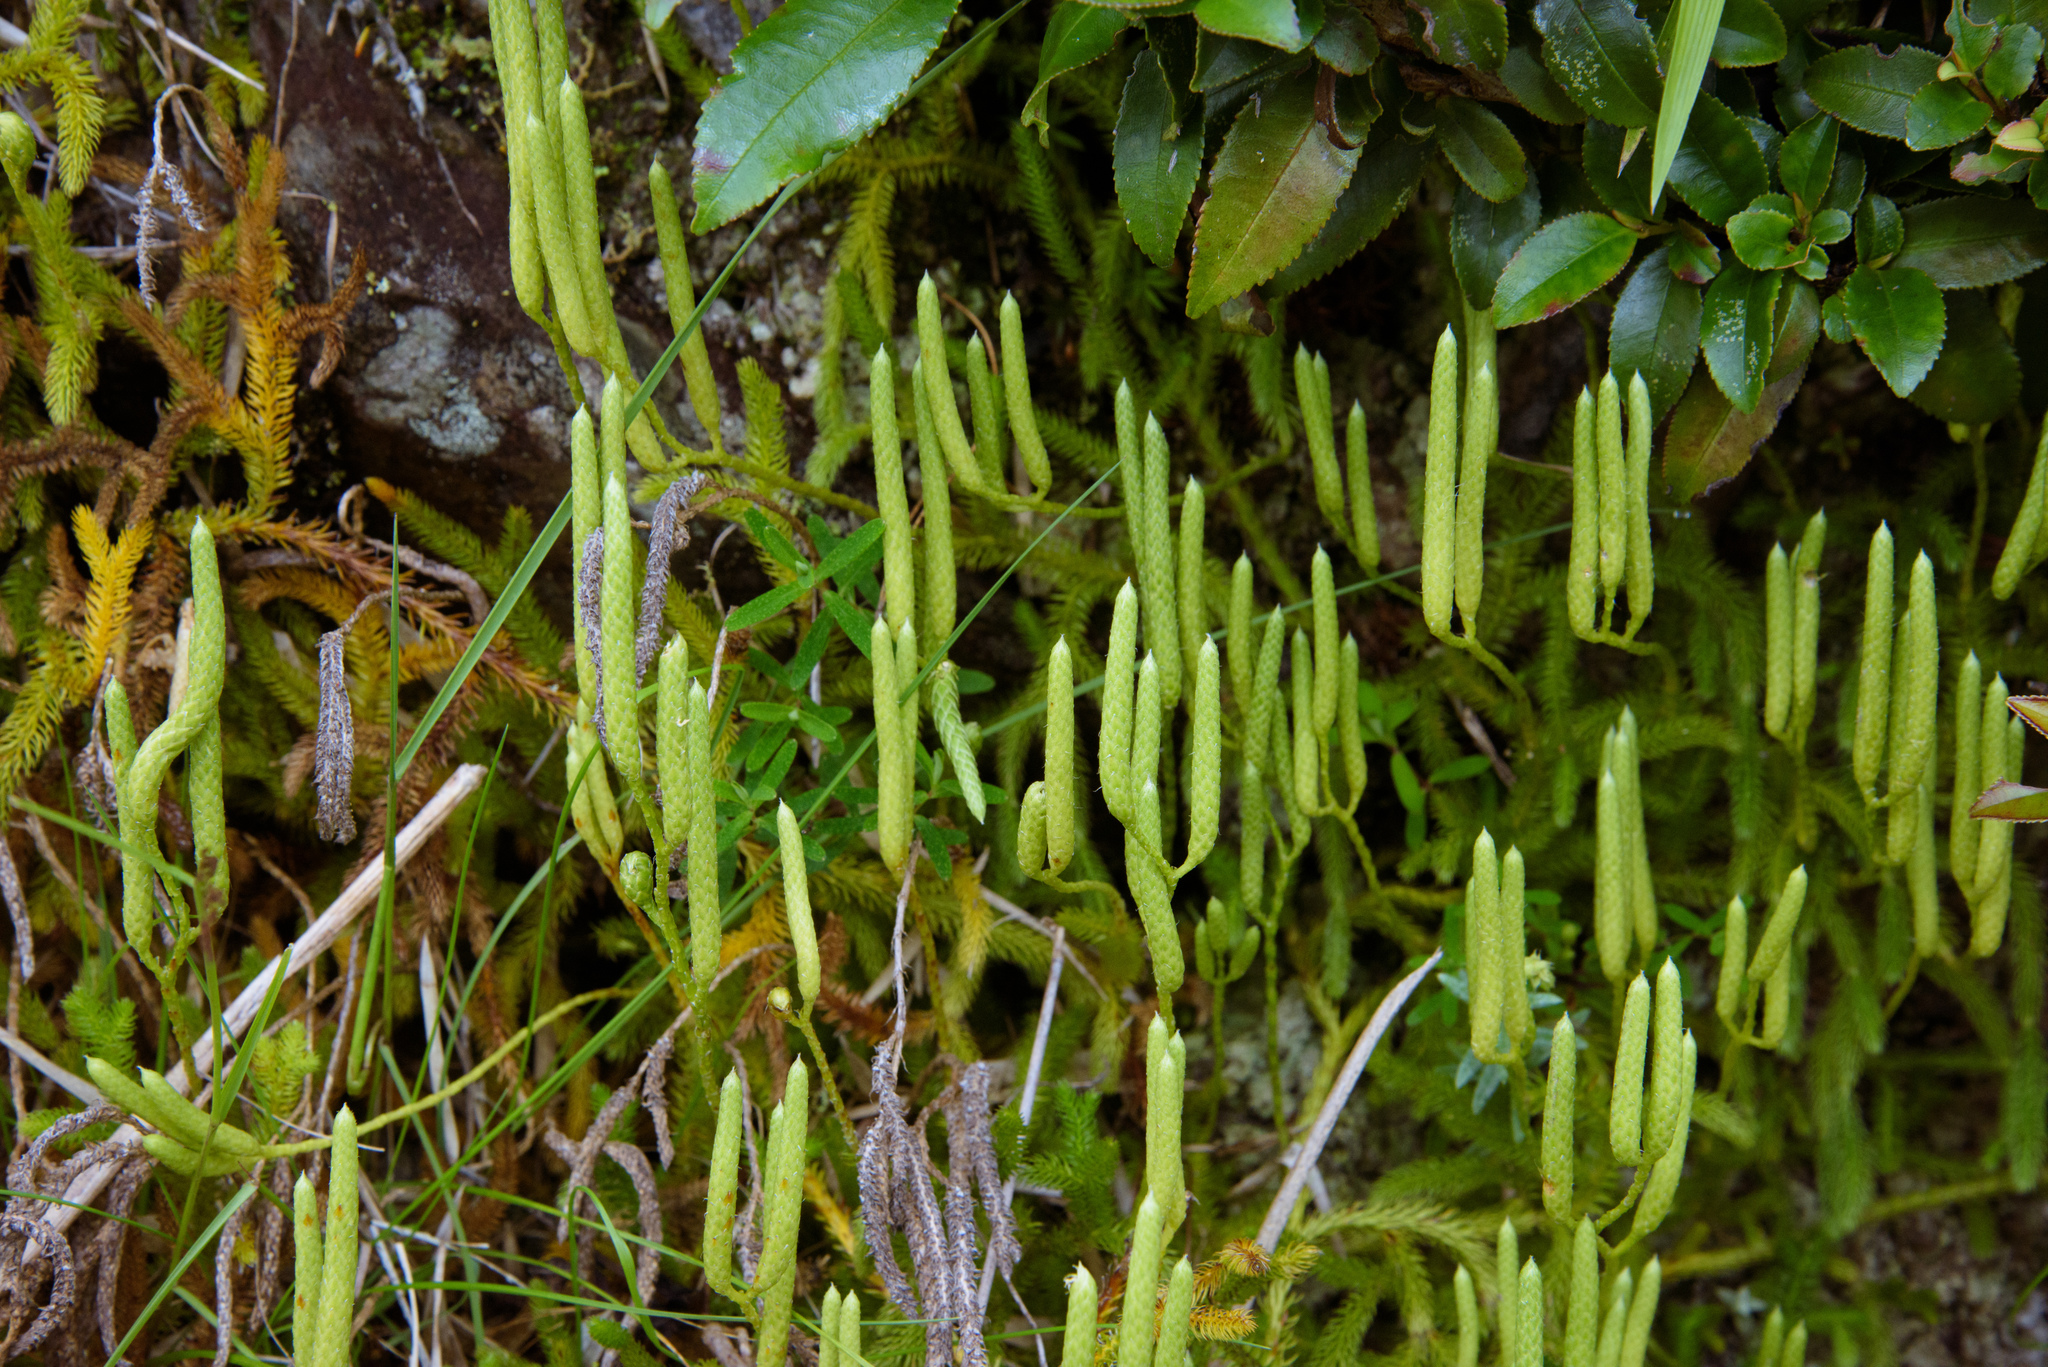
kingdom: Plantae
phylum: Tracheophyta
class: Lycopodiopsida
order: Lycopodiales
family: Lycopodiaceae
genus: Lycopodium
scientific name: Lycopodium clavatum
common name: Stag's-horn clubmoss
